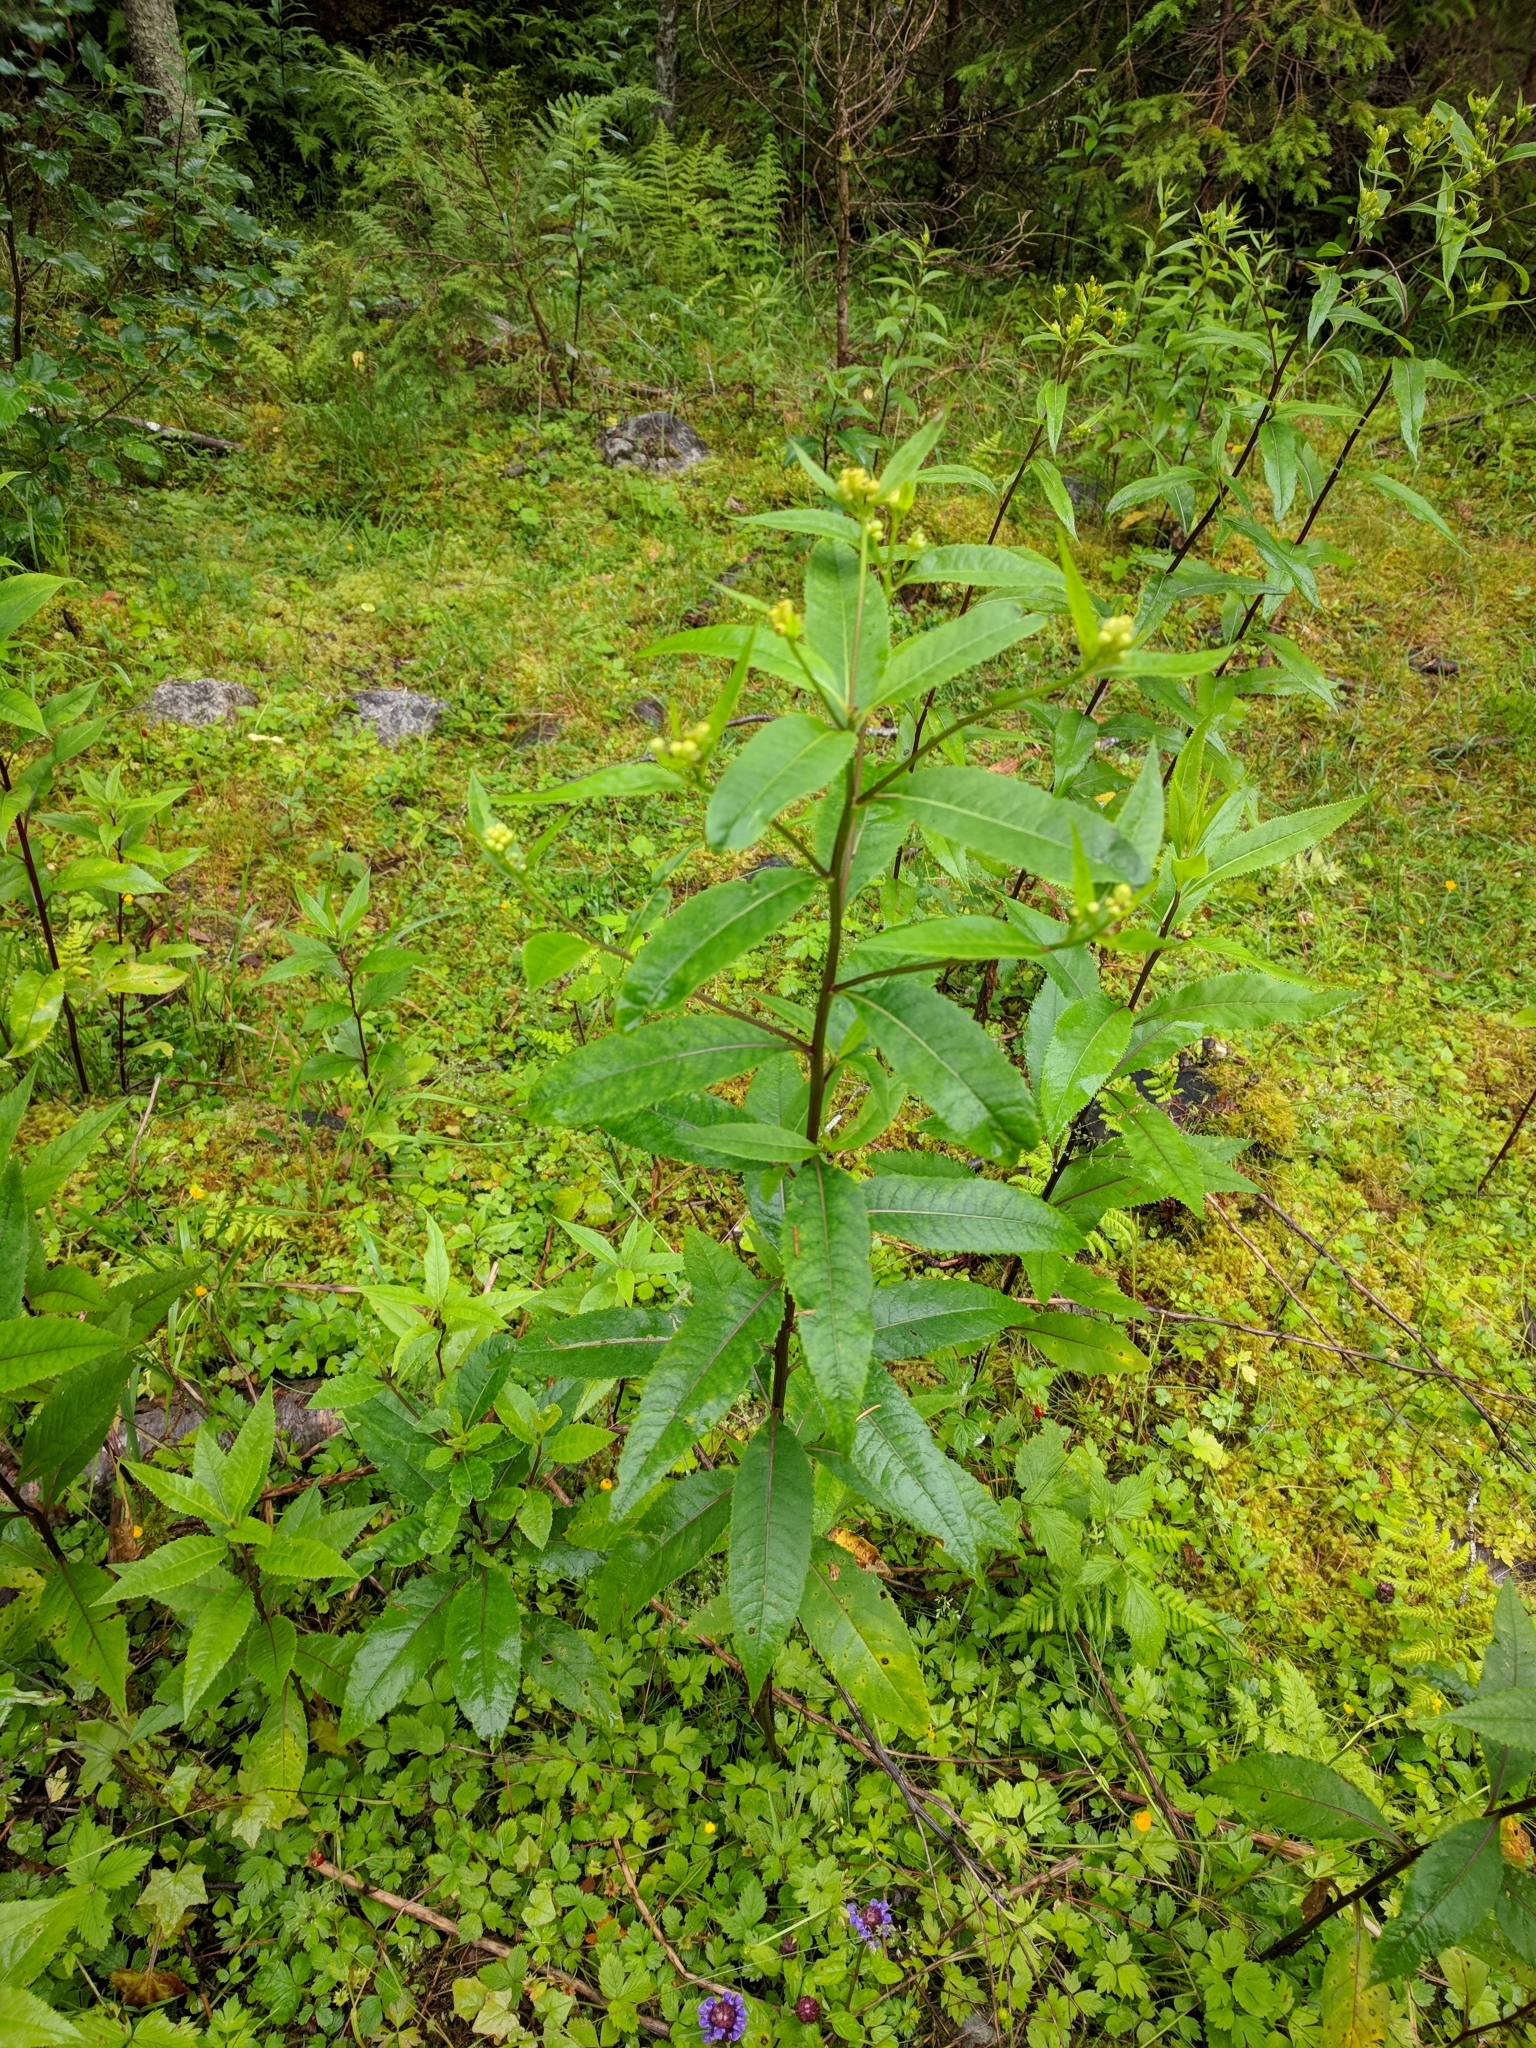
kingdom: Plantae
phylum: Tracheophyta
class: Magnoliopsida
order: Asterales
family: Asteraceae
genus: Senecio
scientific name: Senecio ovatus
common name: Wood ragwort
